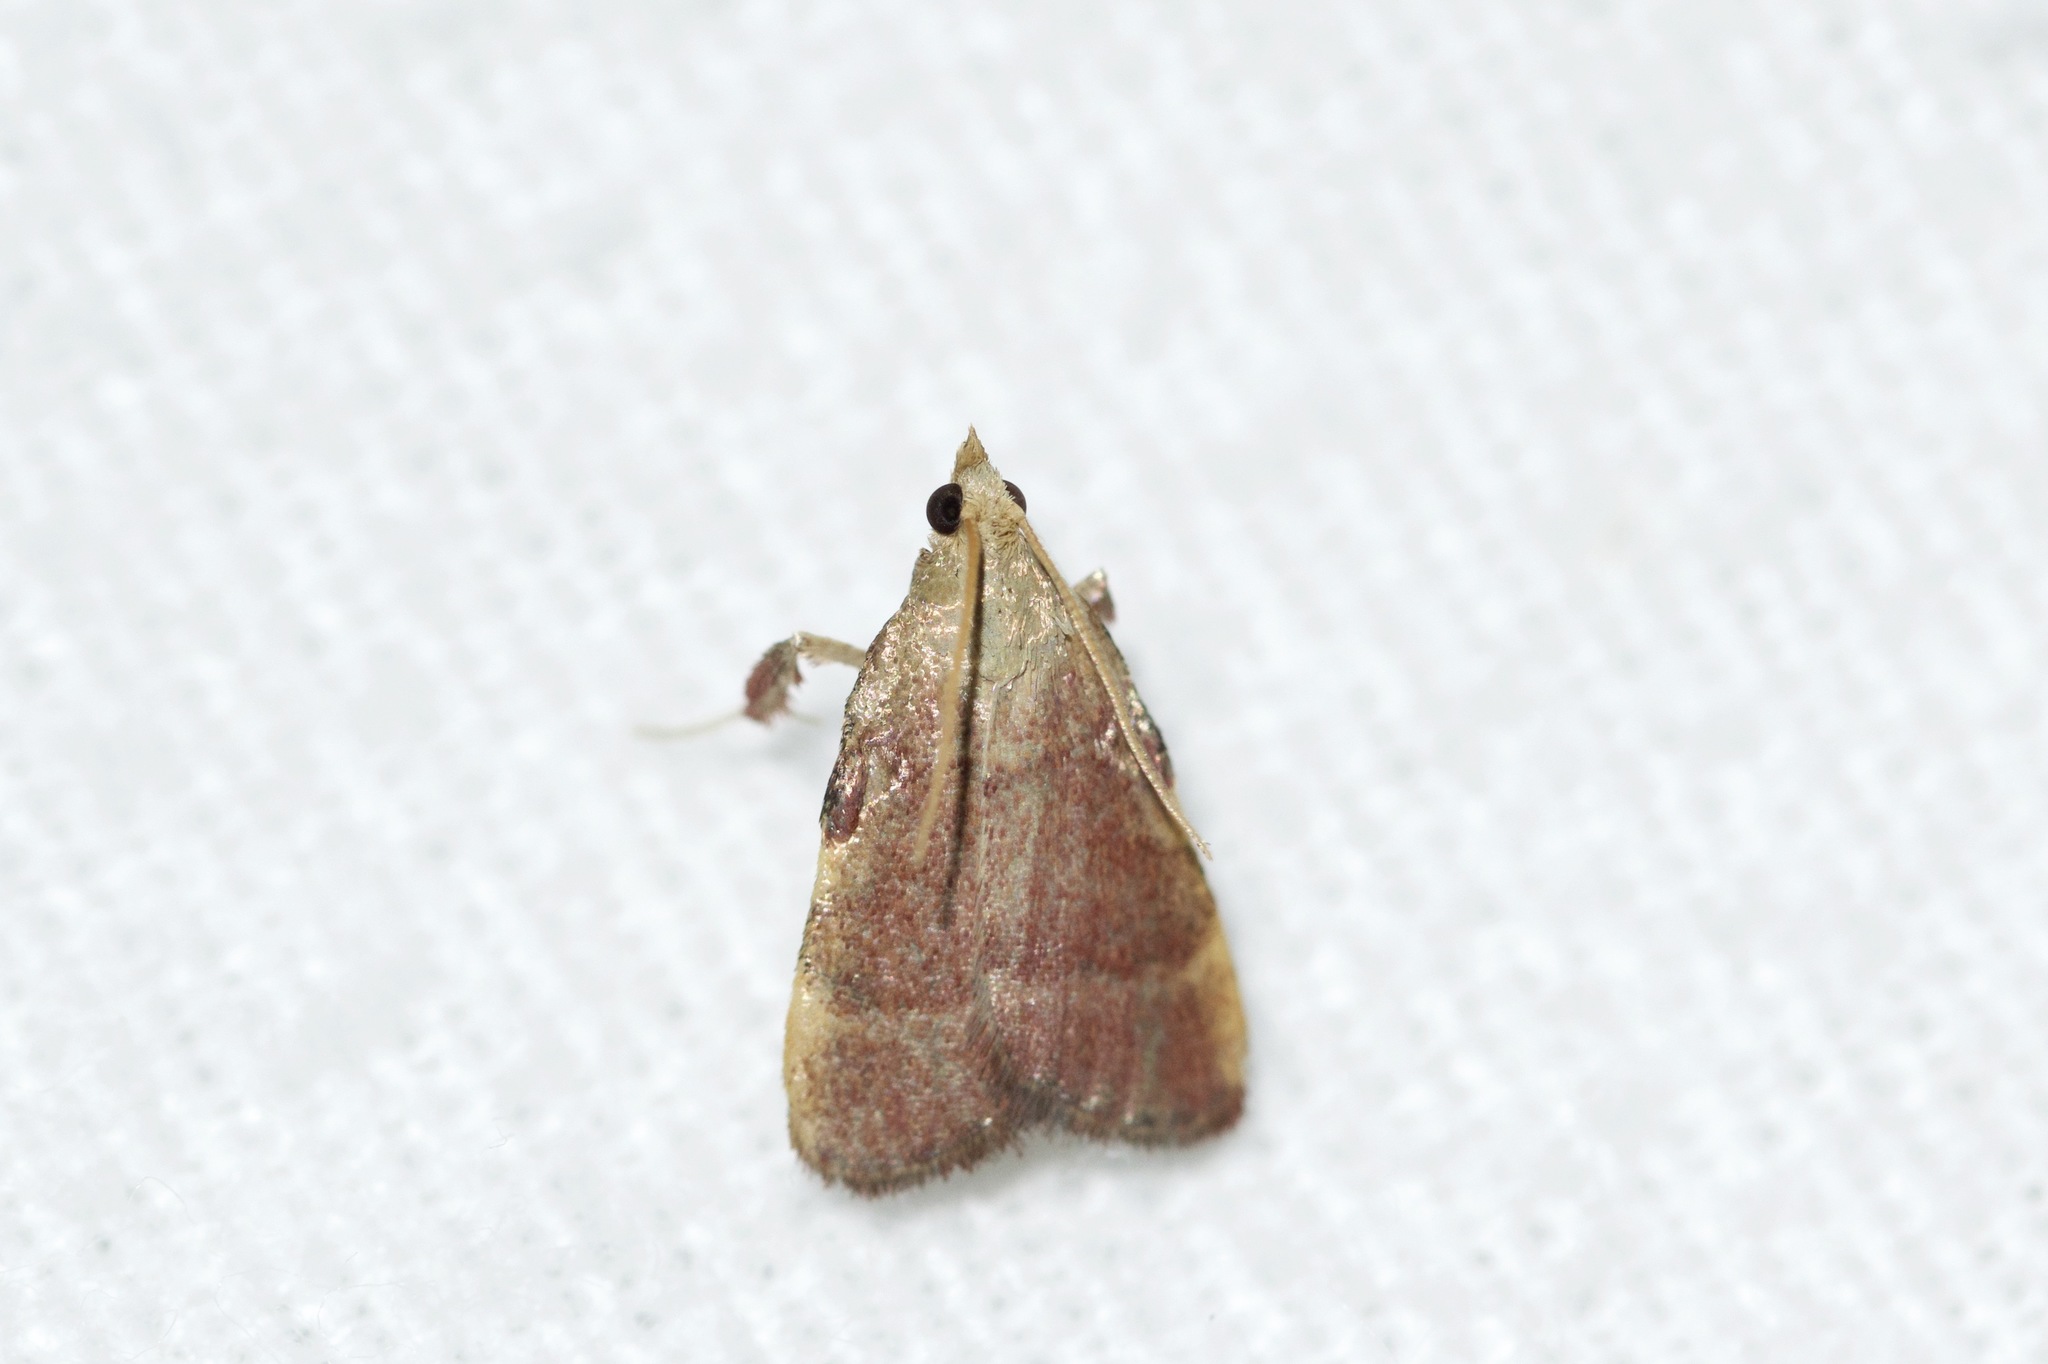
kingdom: Animalia
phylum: Arthropoda
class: Insecta
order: Lepidoptera
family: Pyralidae
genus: Condylolomia
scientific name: Condylolomia participialis
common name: Drab condylolomia moth
